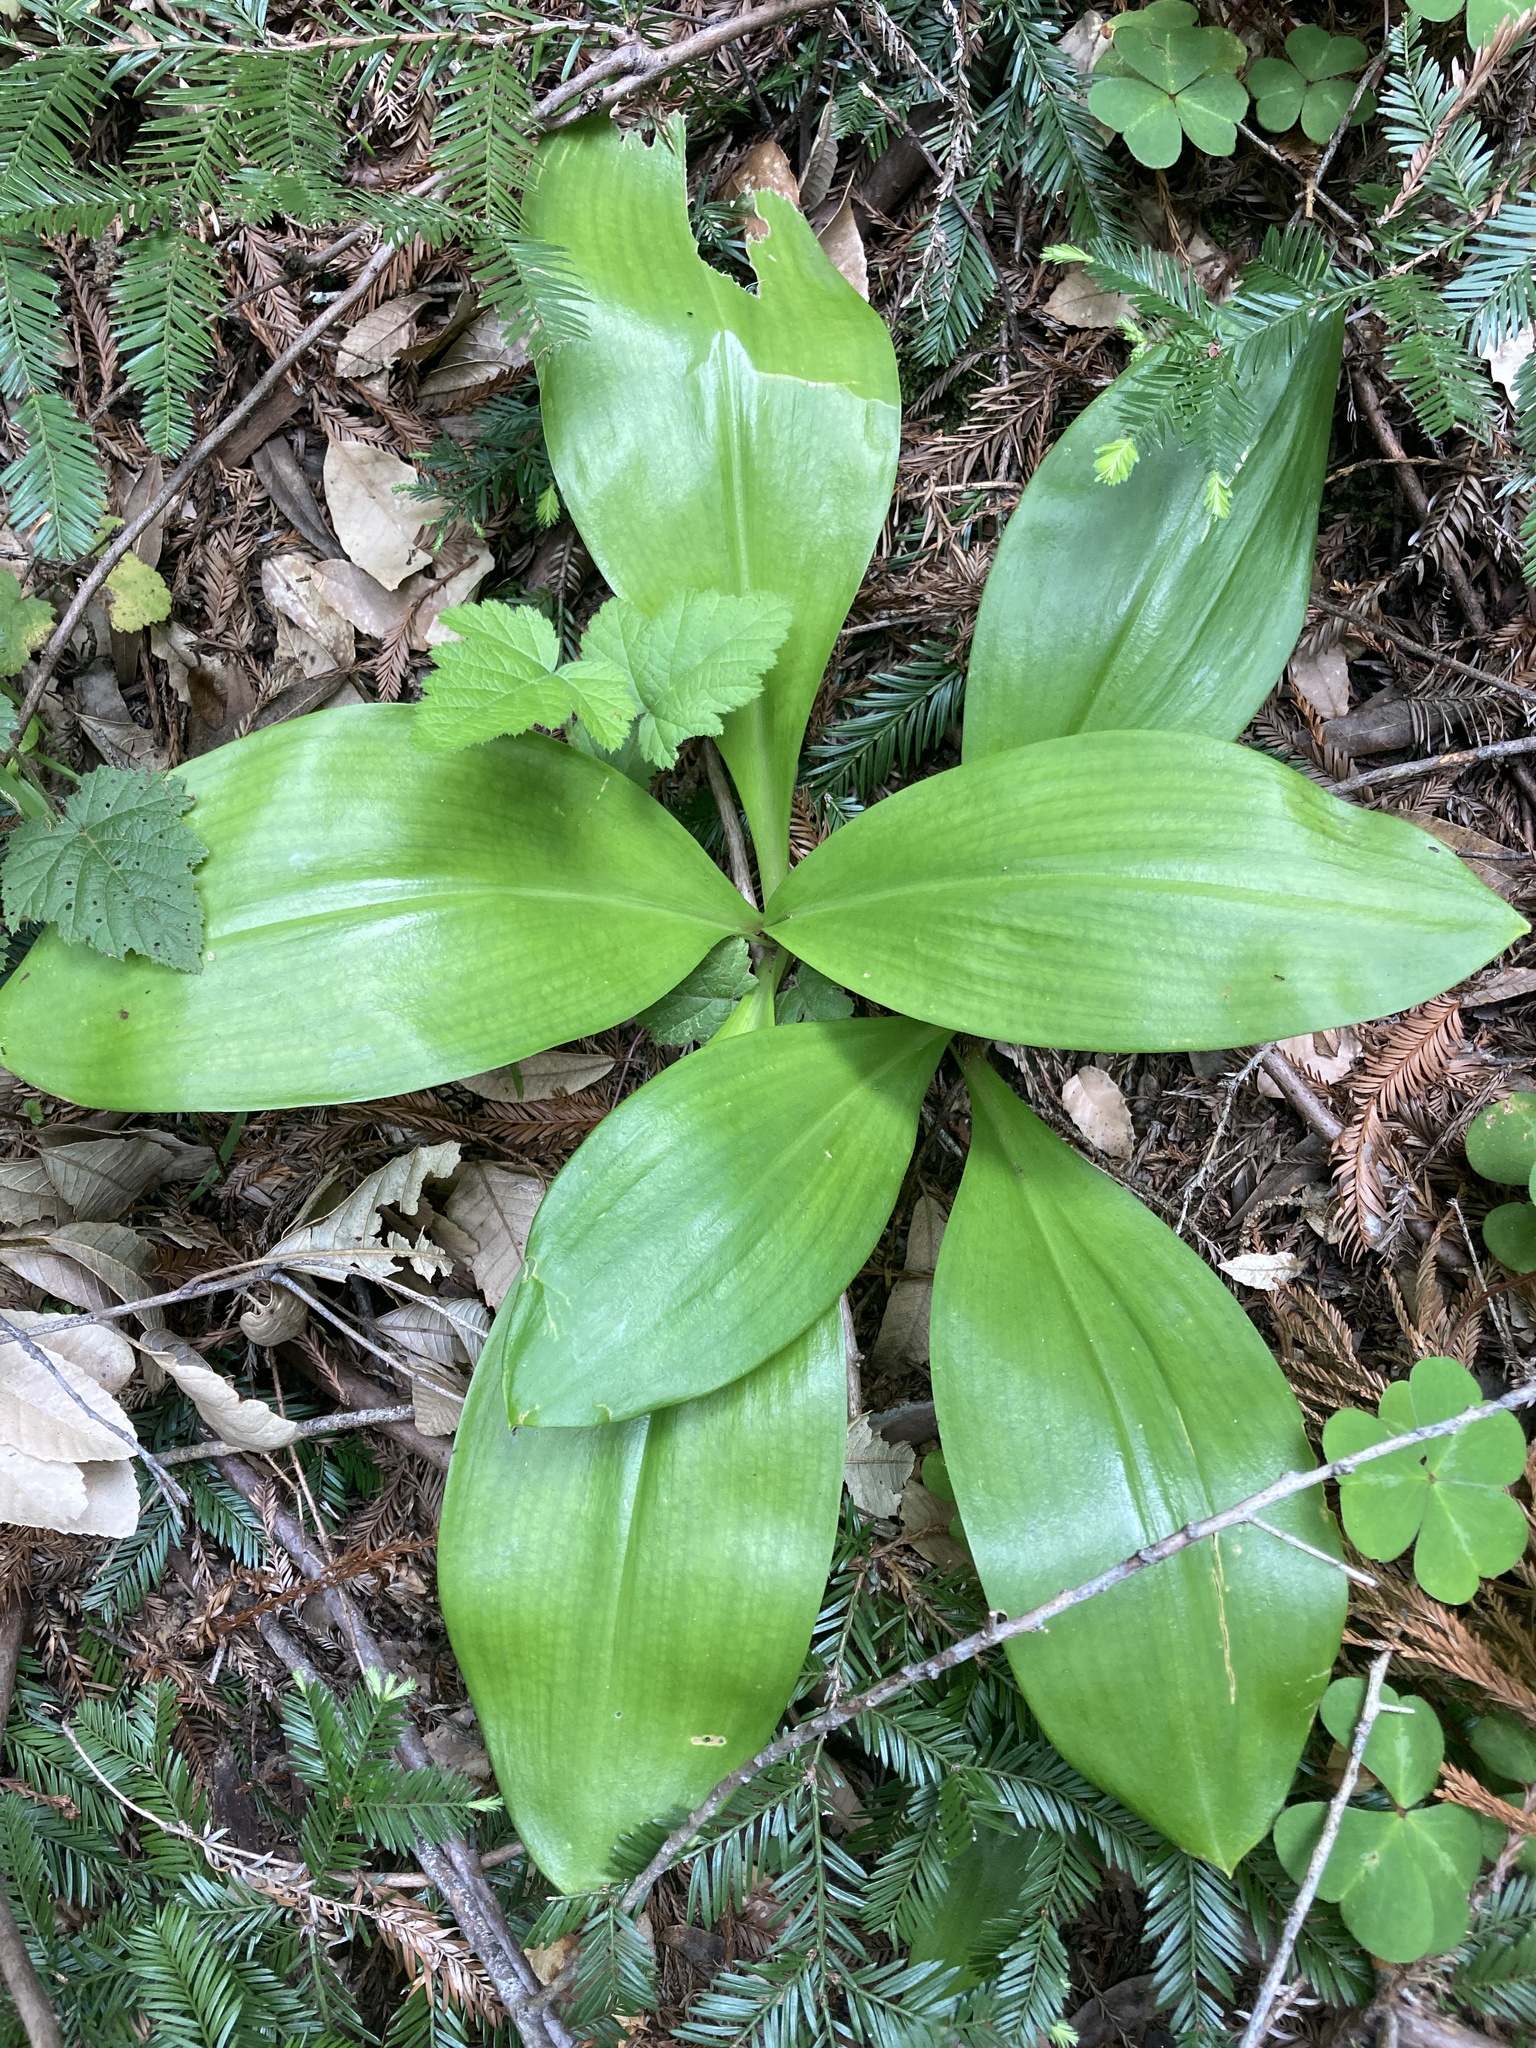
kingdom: Plantae
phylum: Tracheophyta
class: Liliopsida
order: Liliales
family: Liliaceae
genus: Clintonia
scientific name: Clintonia andrewsiana
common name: Red clintonia
